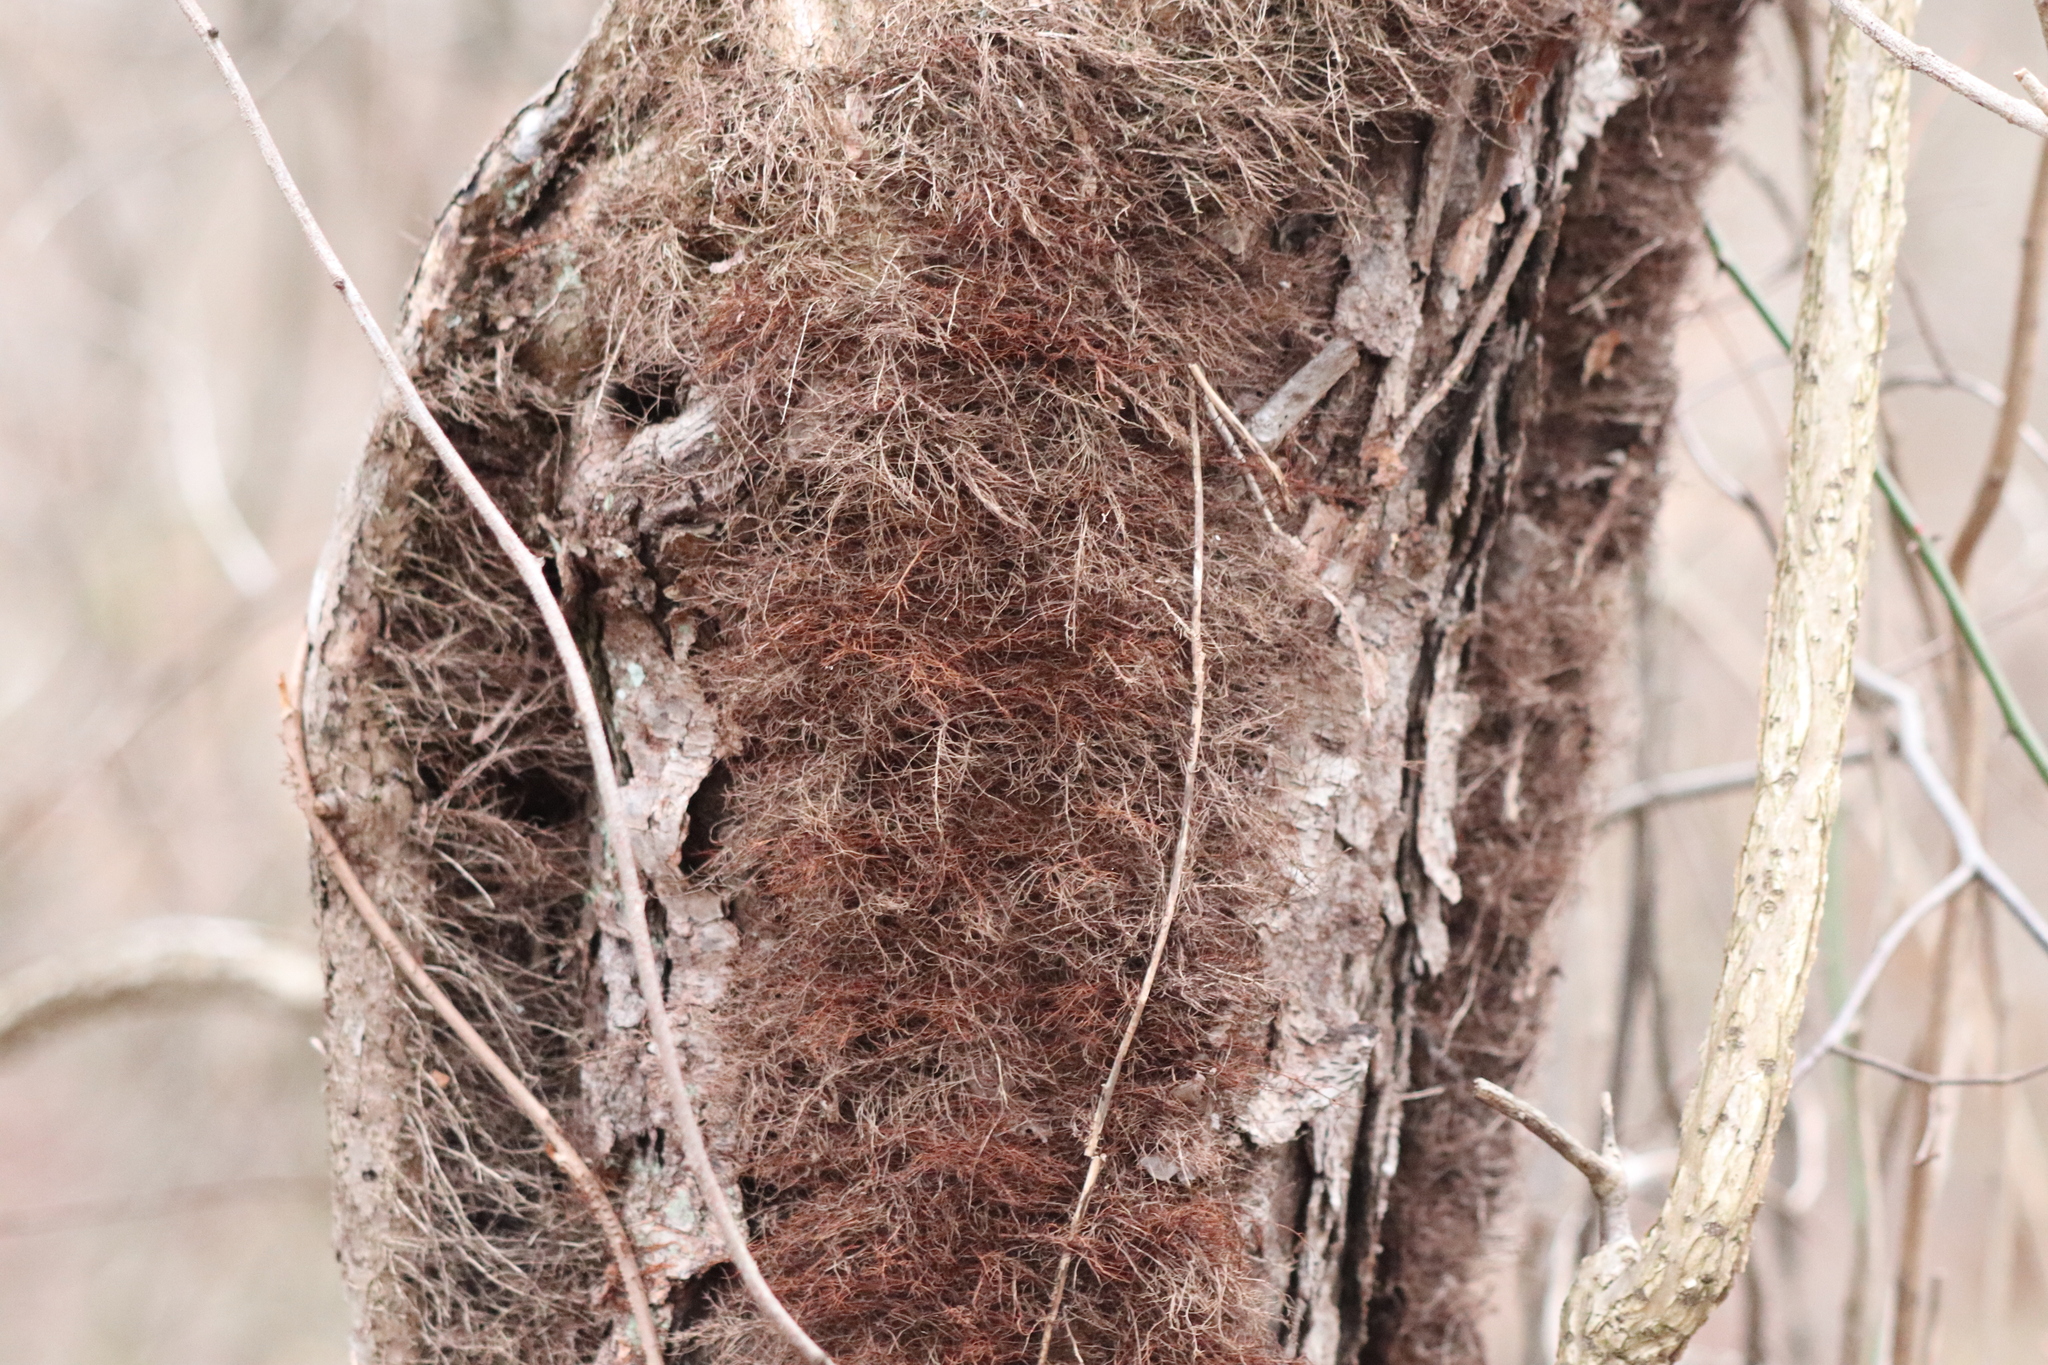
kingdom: Plantae
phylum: Tracheophyta
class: Magnoliopsida
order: Sapindales
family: Anacardiaceae
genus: Toxicodendron
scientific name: Toxicodendron radicans
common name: Poison ivy
